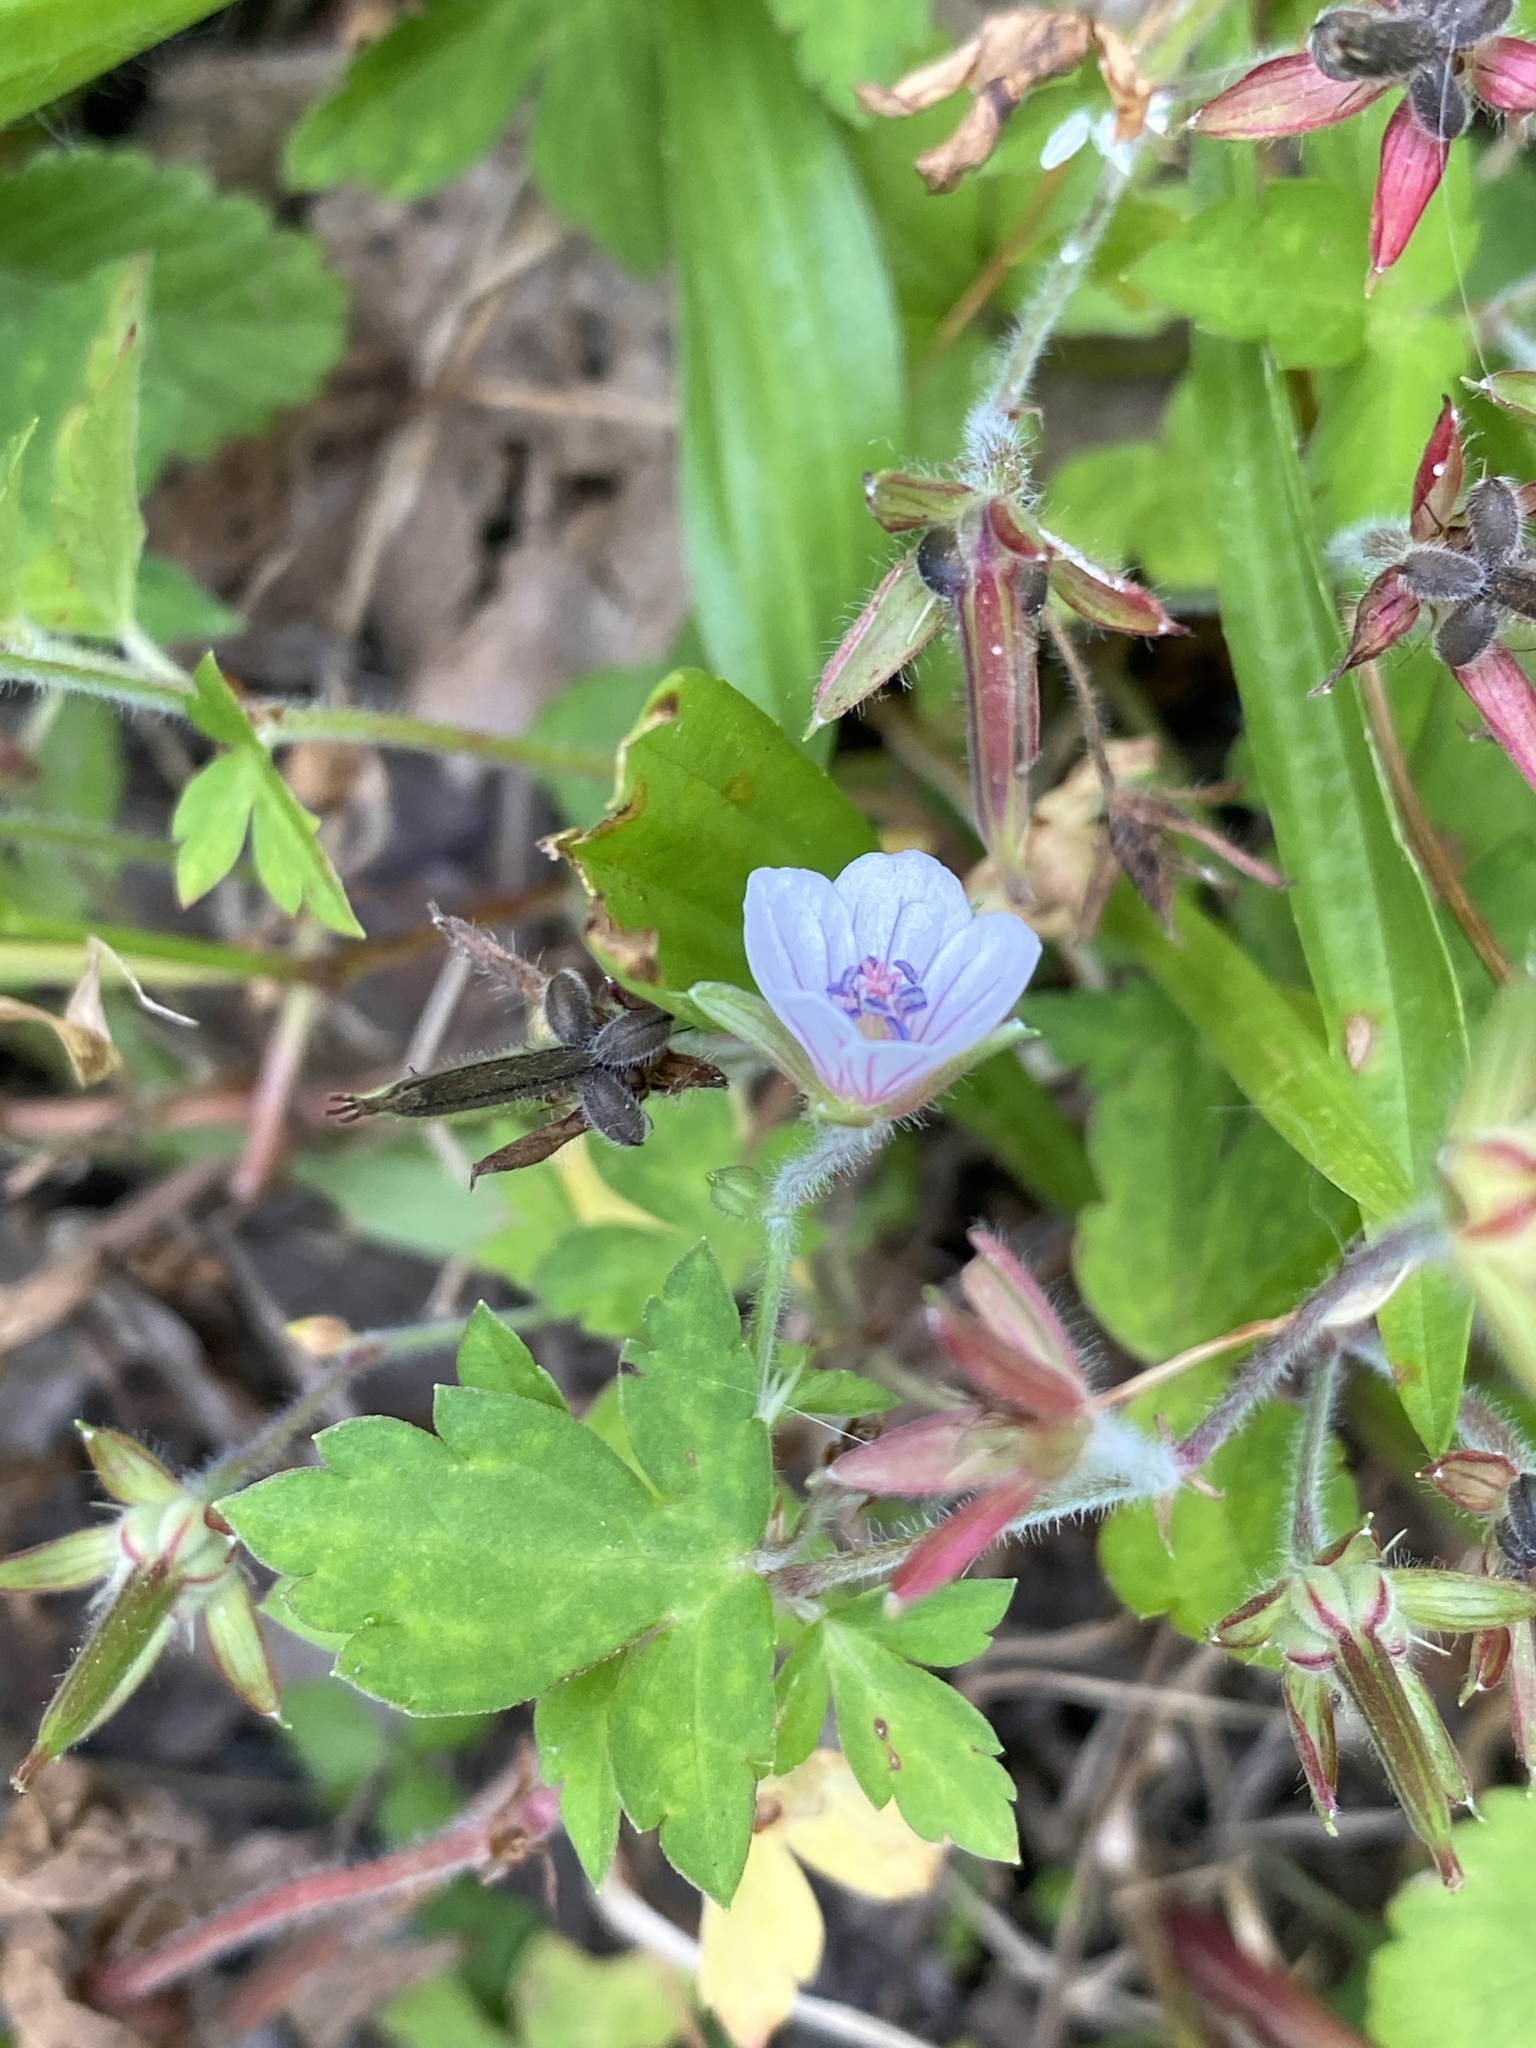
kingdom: Plantae
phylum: Tracheophyta
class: Magnoliopsida
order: Geraniales
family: Geraniaceae
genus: Geranium
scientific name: Geranium thunbergii
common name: Dewdrop crane's-bill
